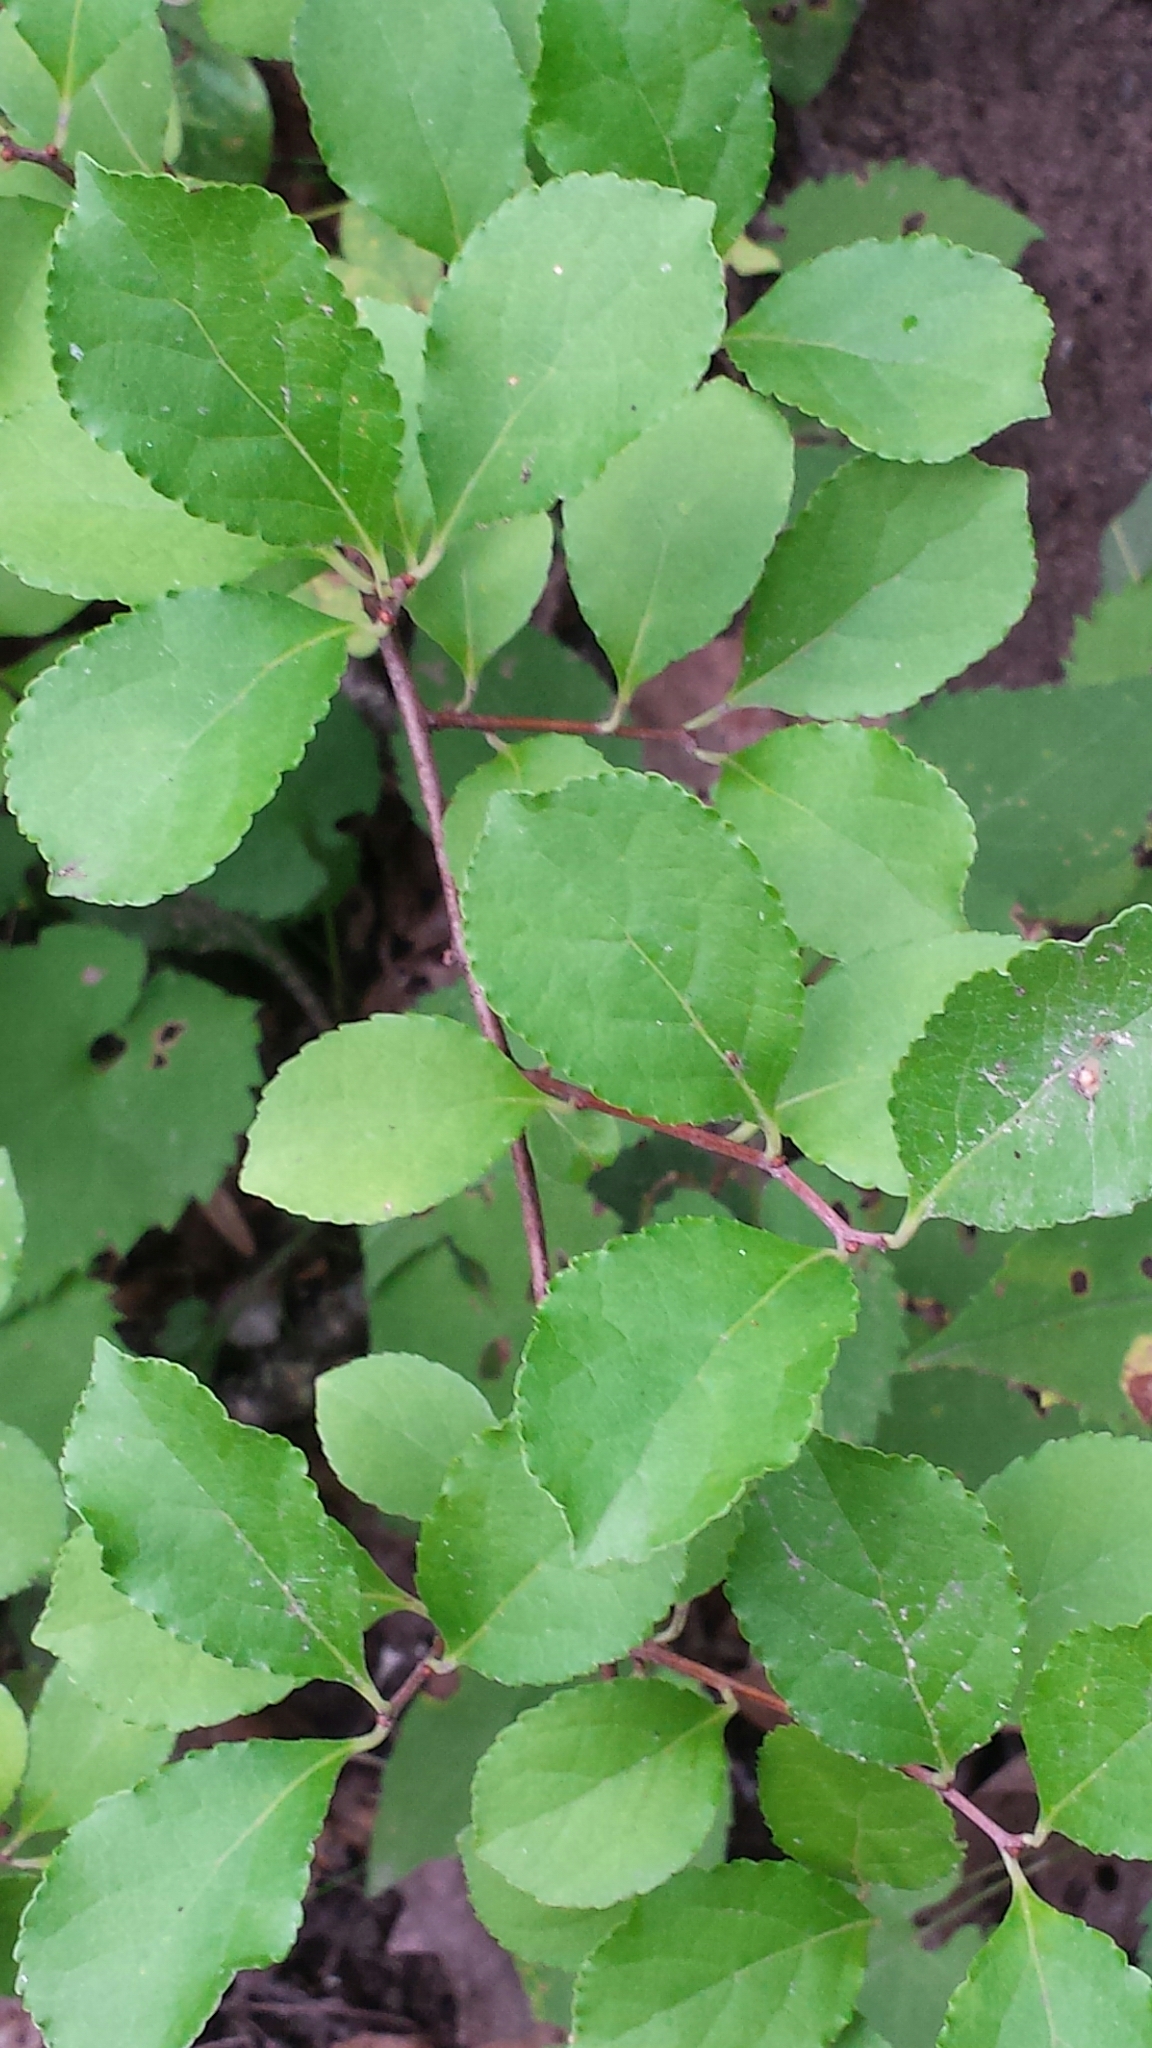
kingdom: Plantae
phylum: Tracheophyta
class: Magnoliopsida
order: Celastrales
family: Celastraceae
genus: Celastrus
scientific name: Celastrus orbiculatus
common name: Oriental bittersweet
